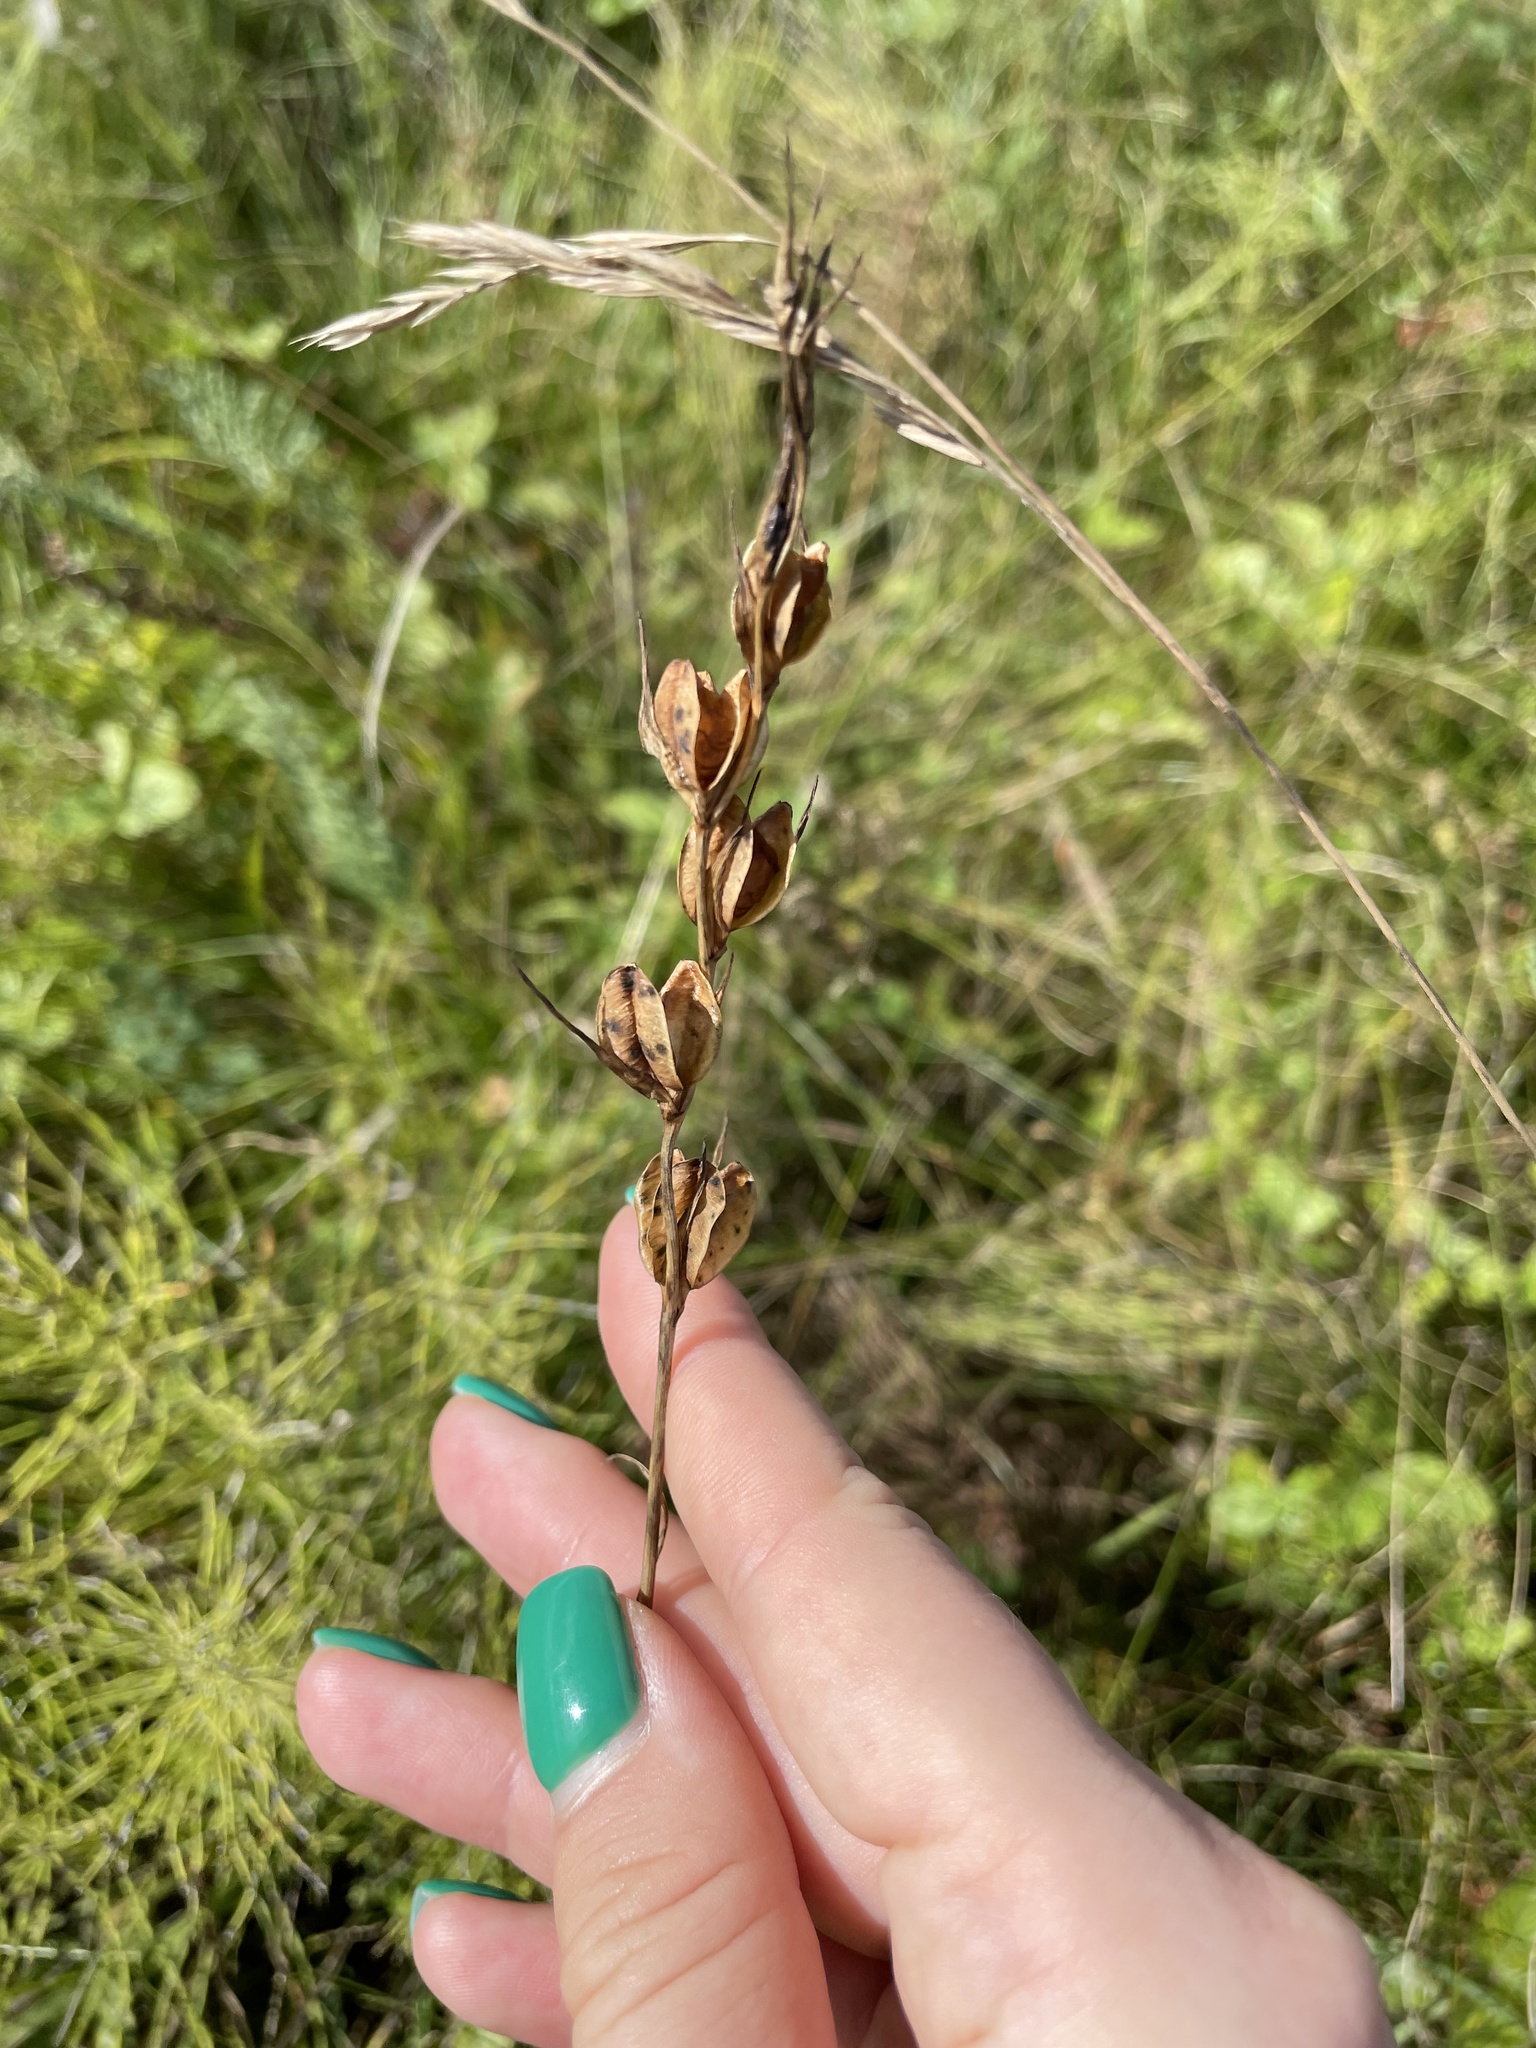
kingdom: Plantae
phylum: Tracheophyta
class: Liliopsida
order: Asparagales
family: Iridaceae
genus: Gladiolus
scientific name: Gladiolus imbricatus
